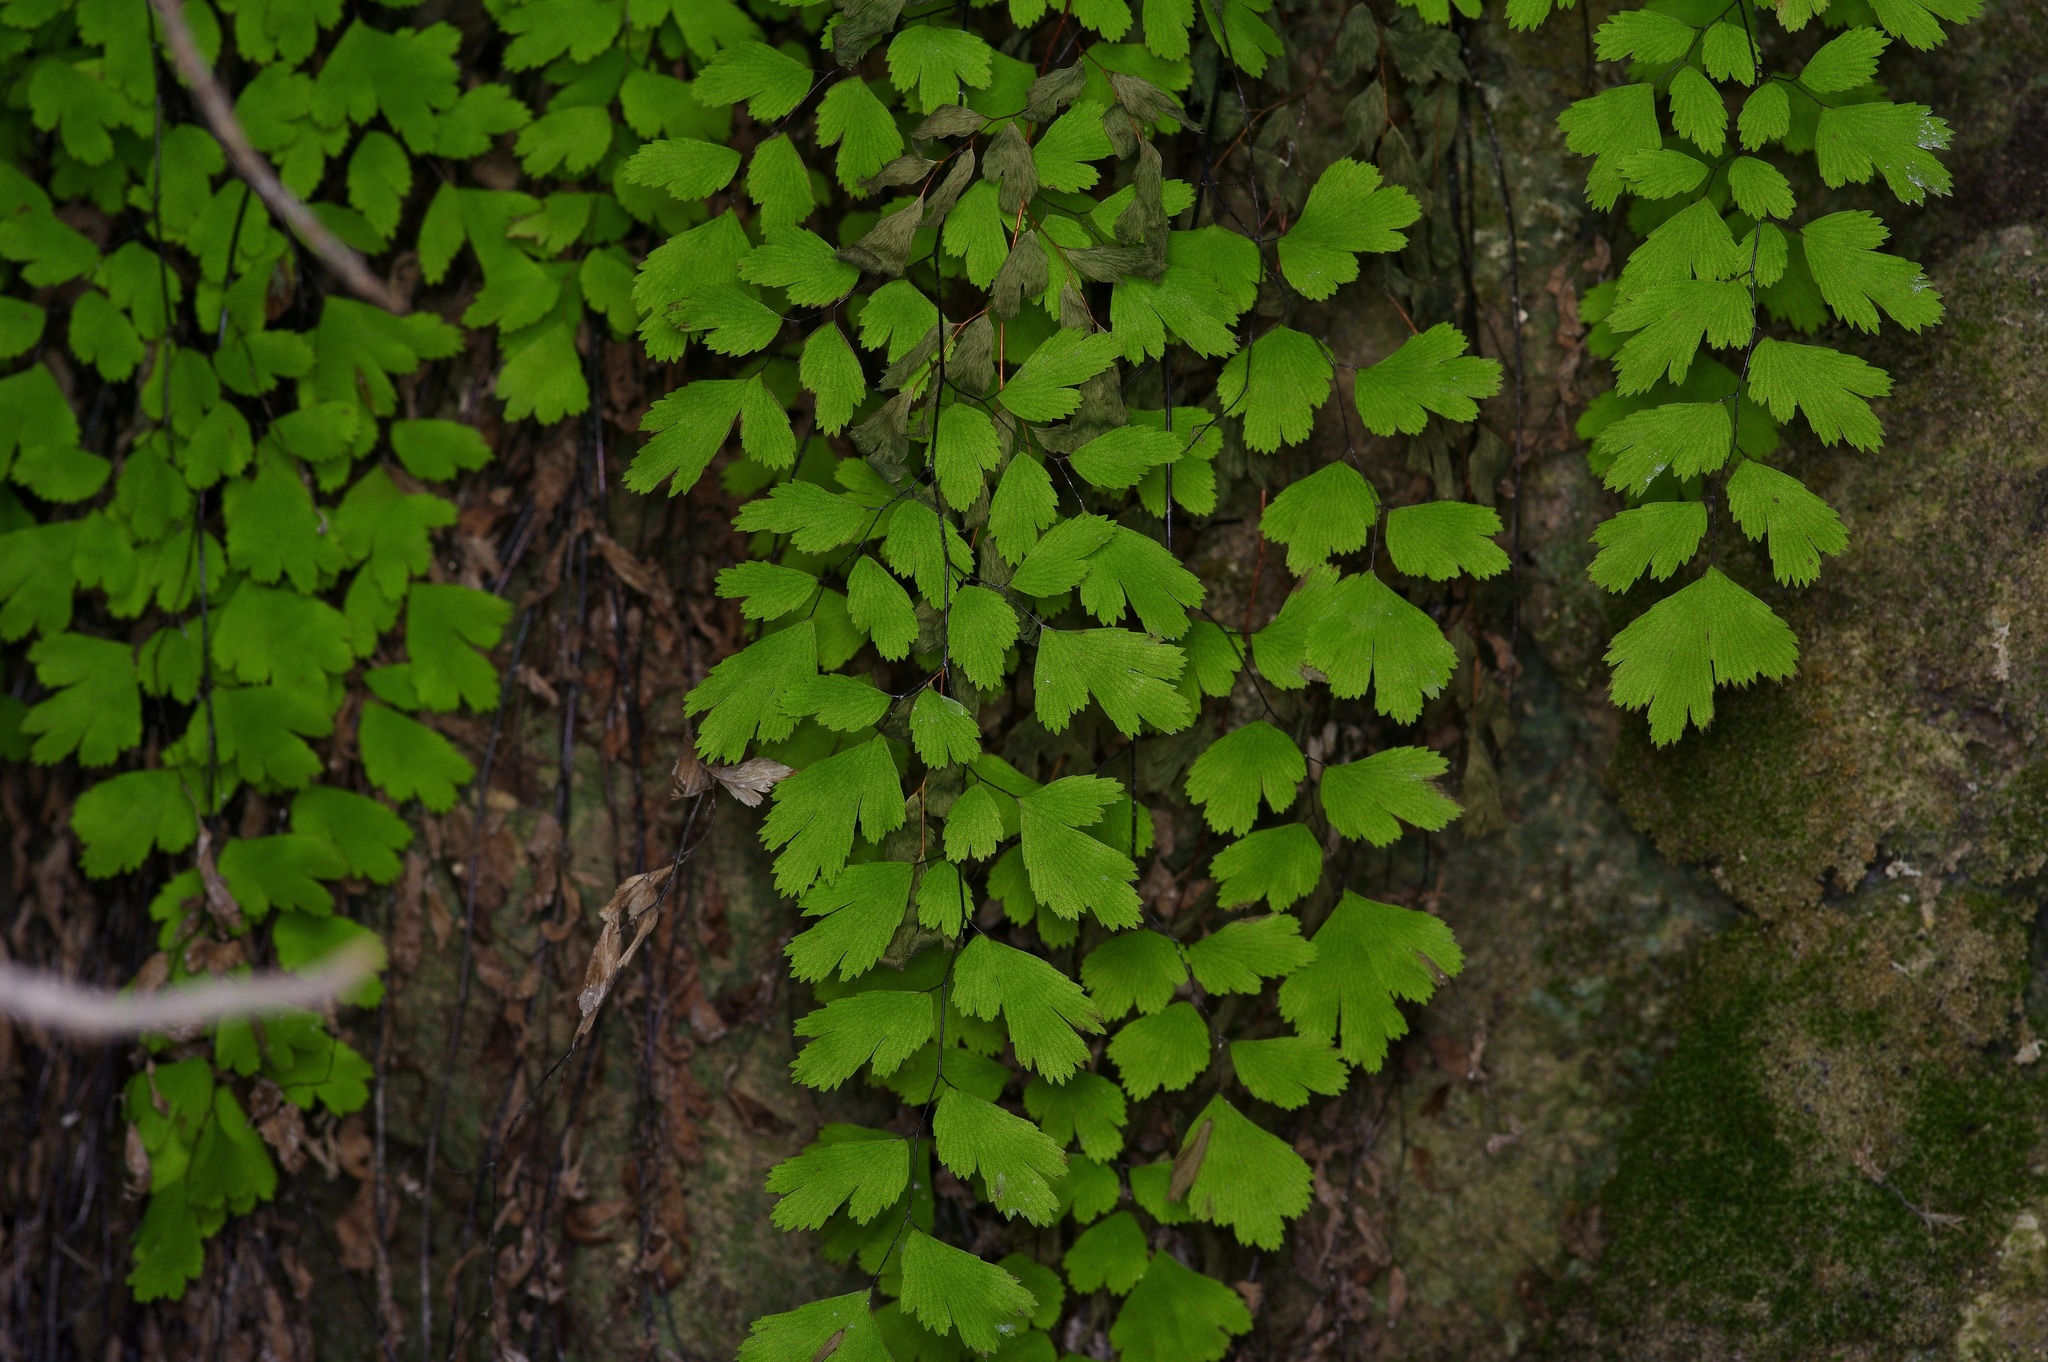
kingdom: Plantae
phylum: Tracheophyta
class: Polypodiopsida
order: Polypodiales
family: Pteridaceae
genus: Adiantum
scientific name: Adiantum capillus-veneris
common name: Maidenhair fern
